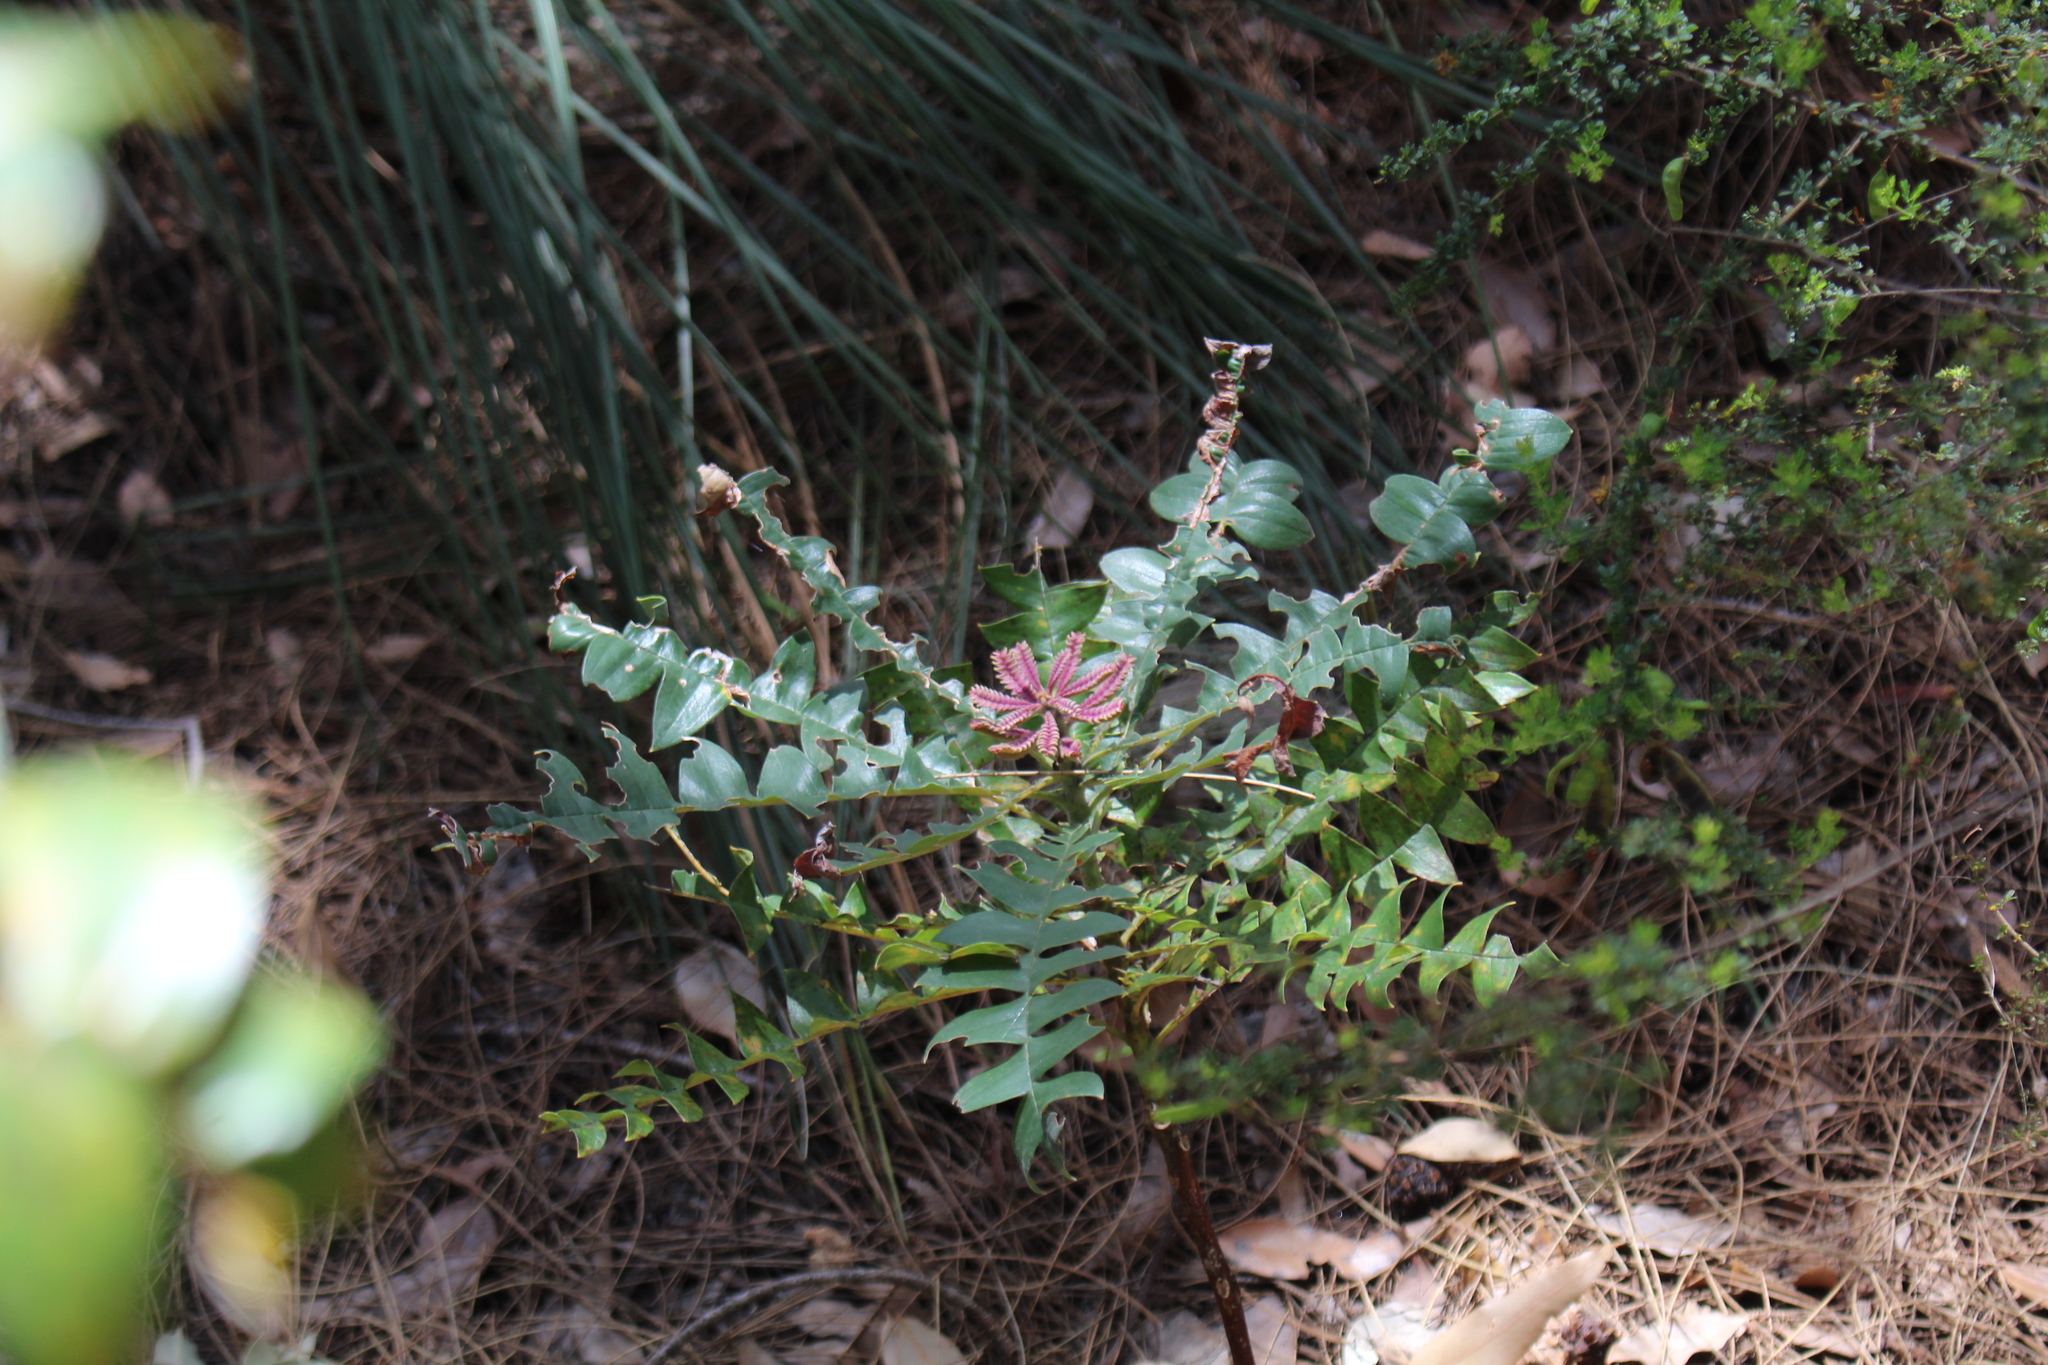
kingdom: Plantae
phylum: Tracheophyta
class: Magnoliopsida
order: Proteales
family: Proteaceae
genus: Banksia
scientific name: Banksia grandis
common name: Giant banksia
